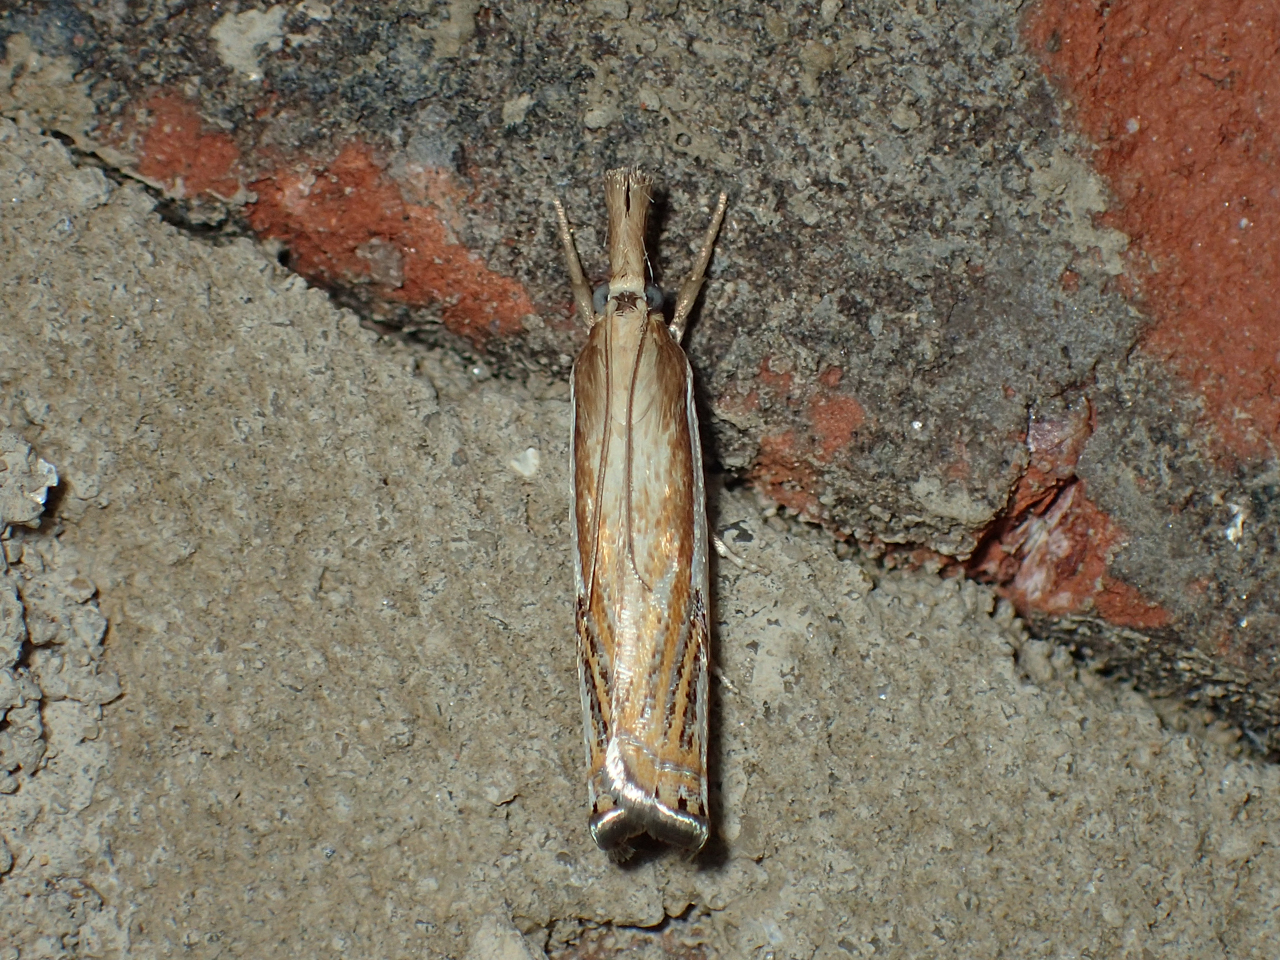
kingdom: Animalia
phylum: Arthropoda
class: Insecta
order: Lepidoptera
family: Crambidae
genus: Crambus
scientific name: Crambus agitatellus
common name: Double-banded grass-veneer
